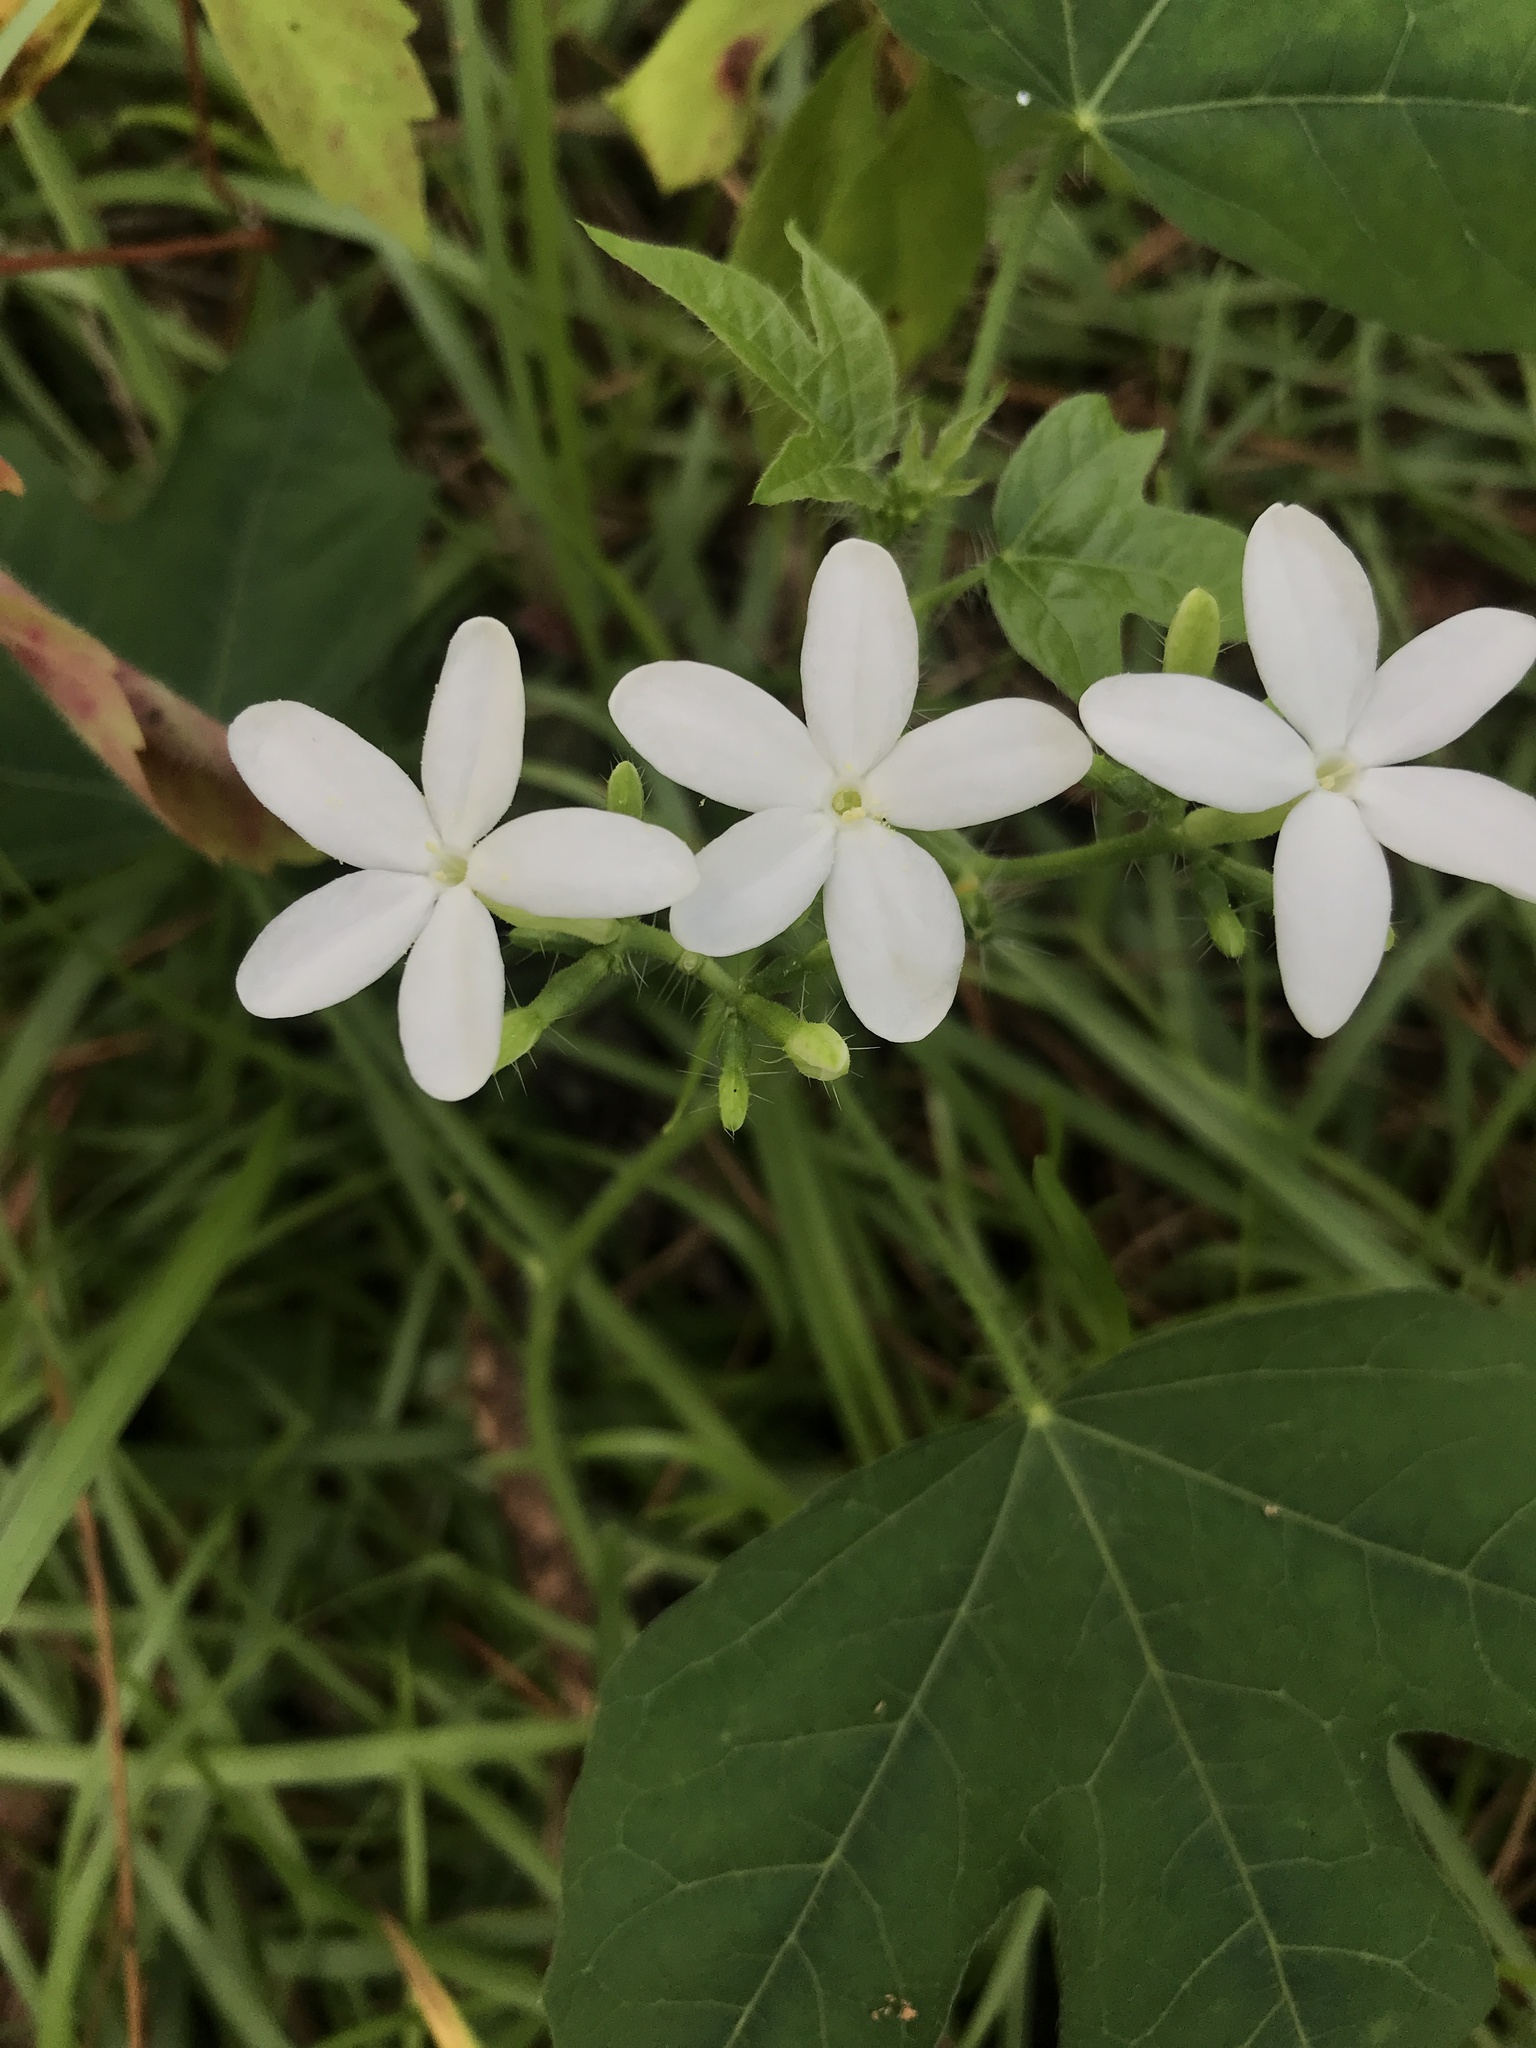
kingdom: Plantae
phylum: Tracheophyta
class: Magnoliopsida
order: Malpighiales
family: Euphorbiaceae
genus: Cnidoscolus
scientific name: Cnidoscolus stimulosus
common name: Bull-nettle
